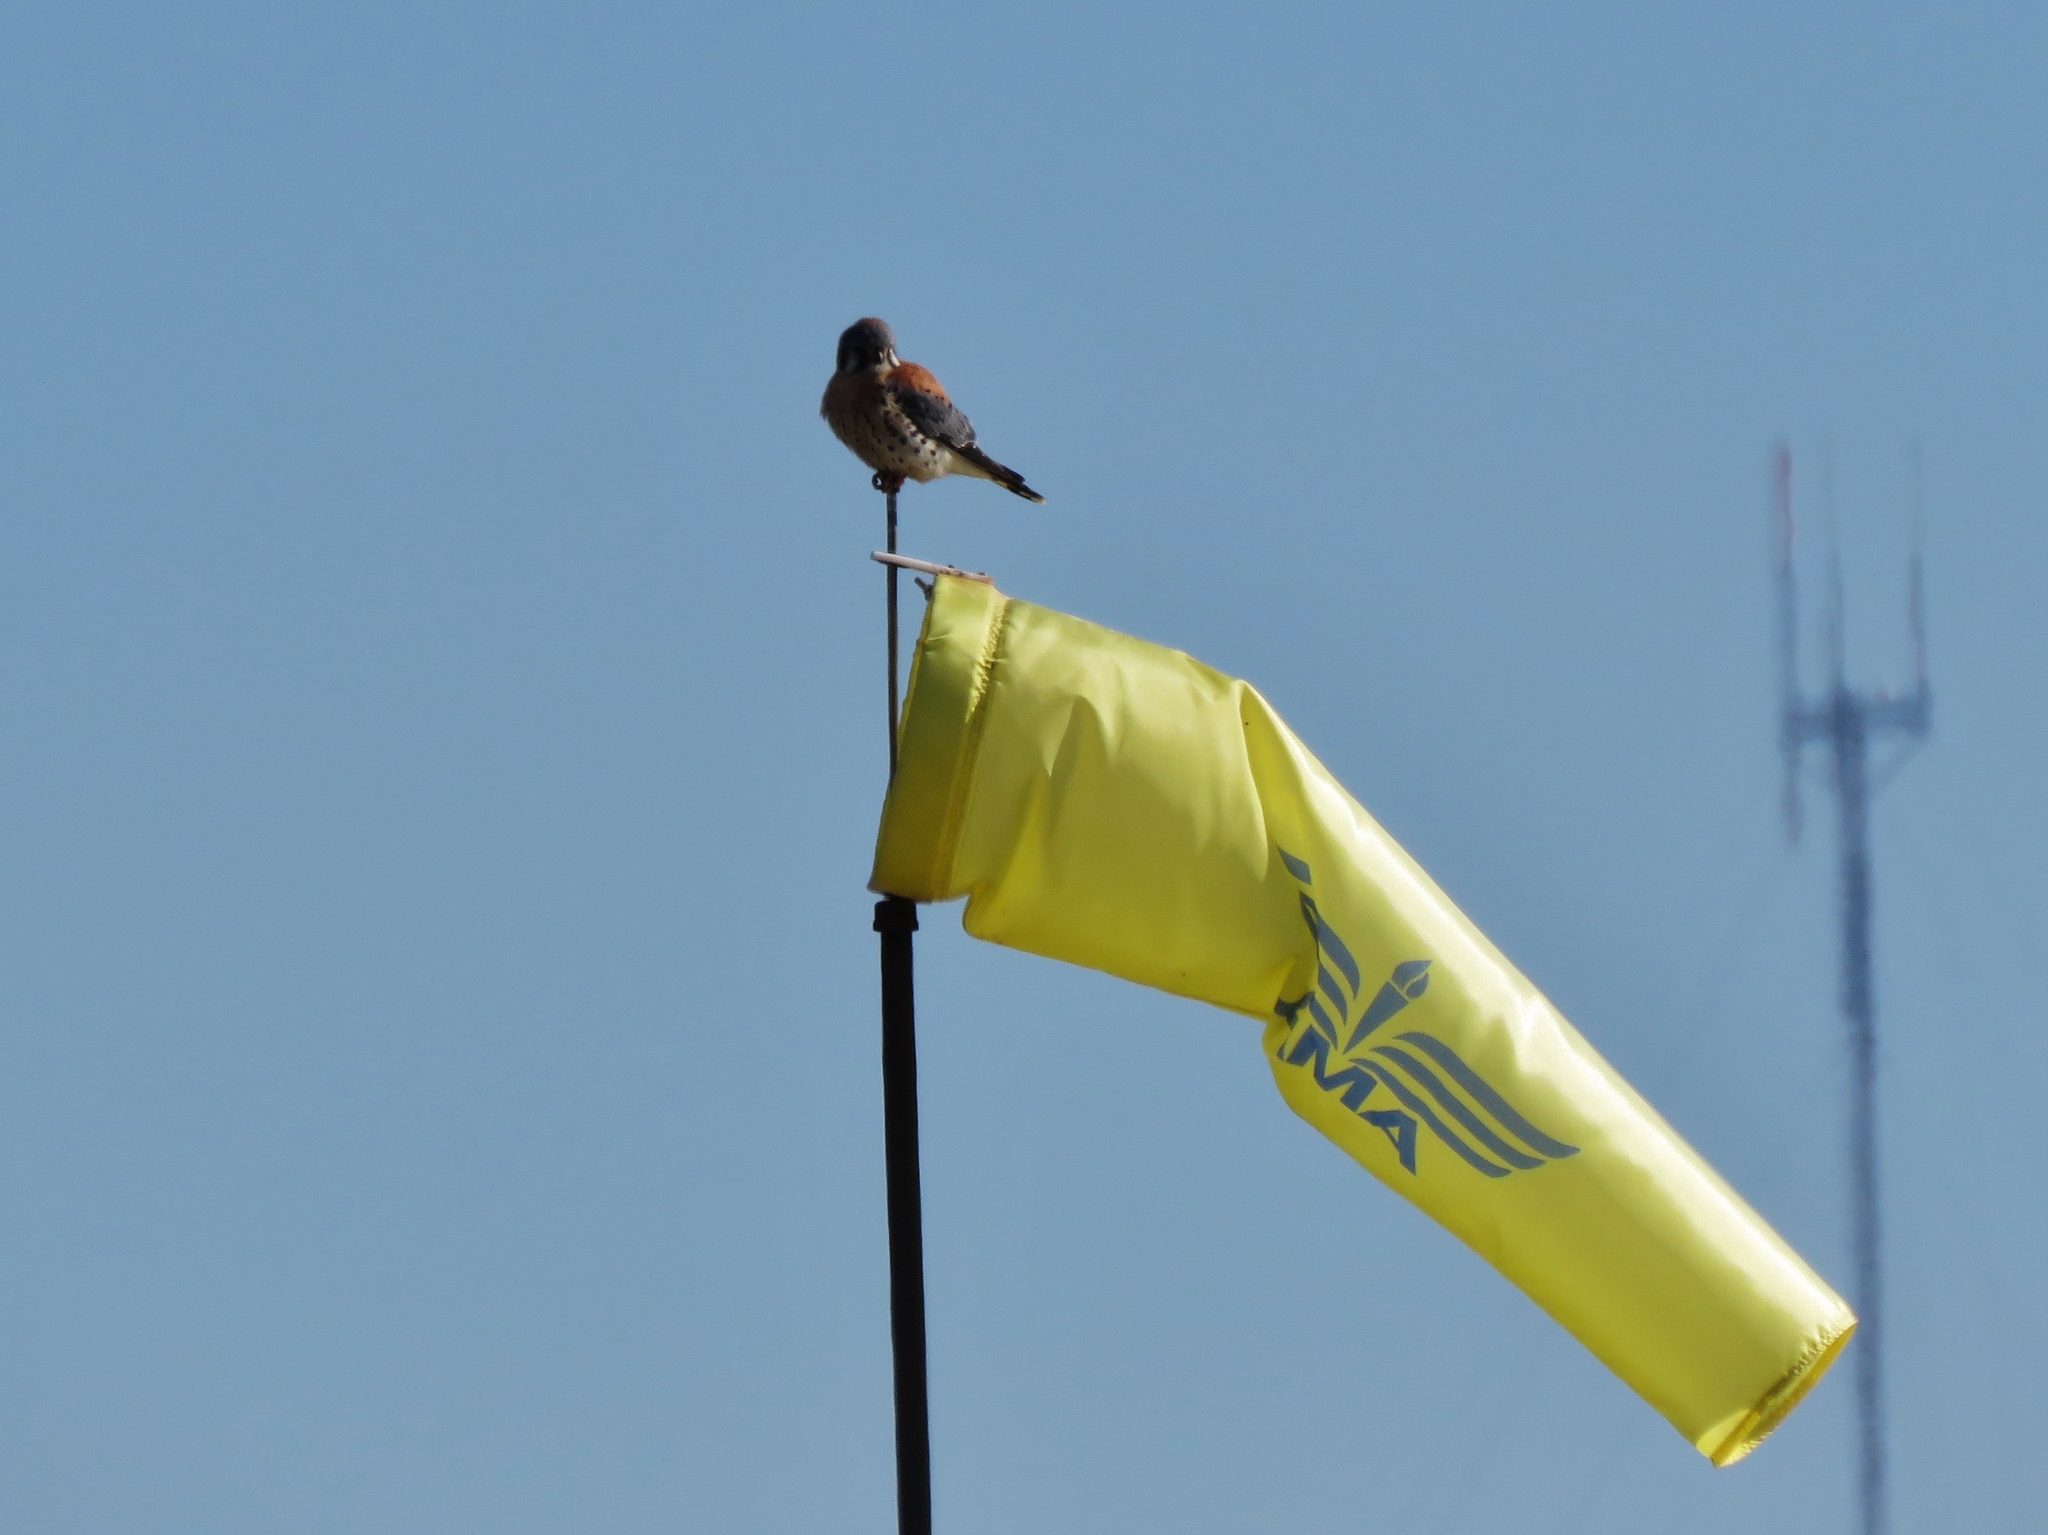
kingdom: Animalia
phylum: Chordata
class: Aves
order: Falconiformes
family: Falconidae
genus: Falco
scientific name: Falco sparverius
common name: American kestrel
